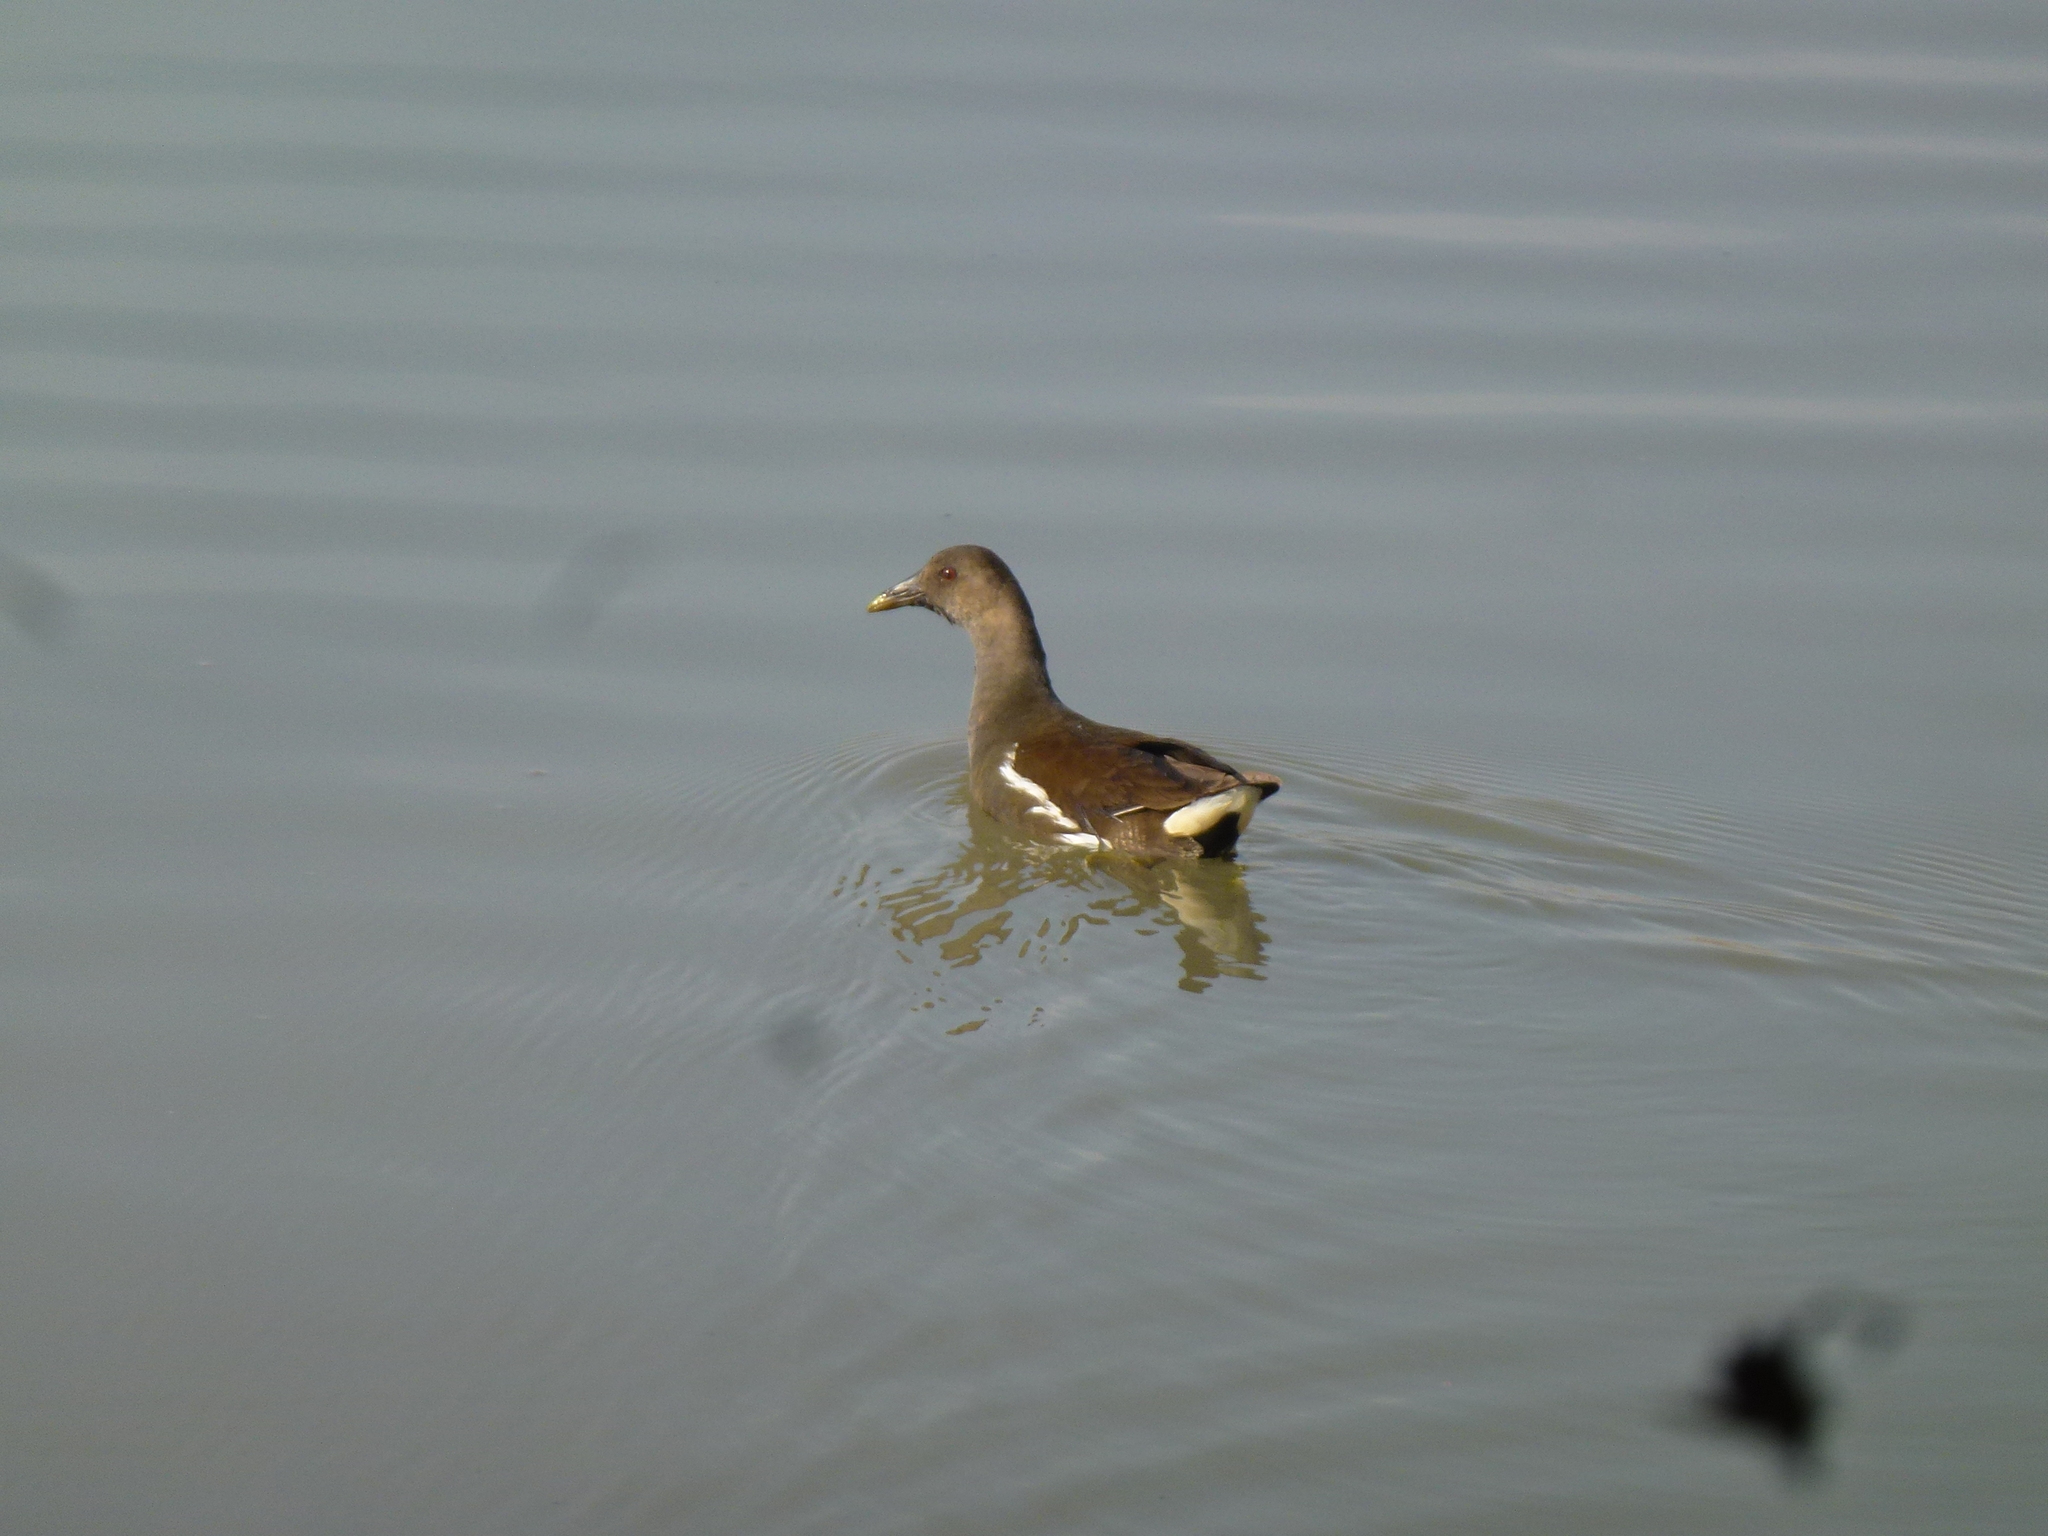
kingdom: Animalia
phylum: Chordata
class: Aves
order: Gruiformes
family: Rallidae
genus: Gallinula
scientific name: Gallinula chloropus
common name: Common moorhen
